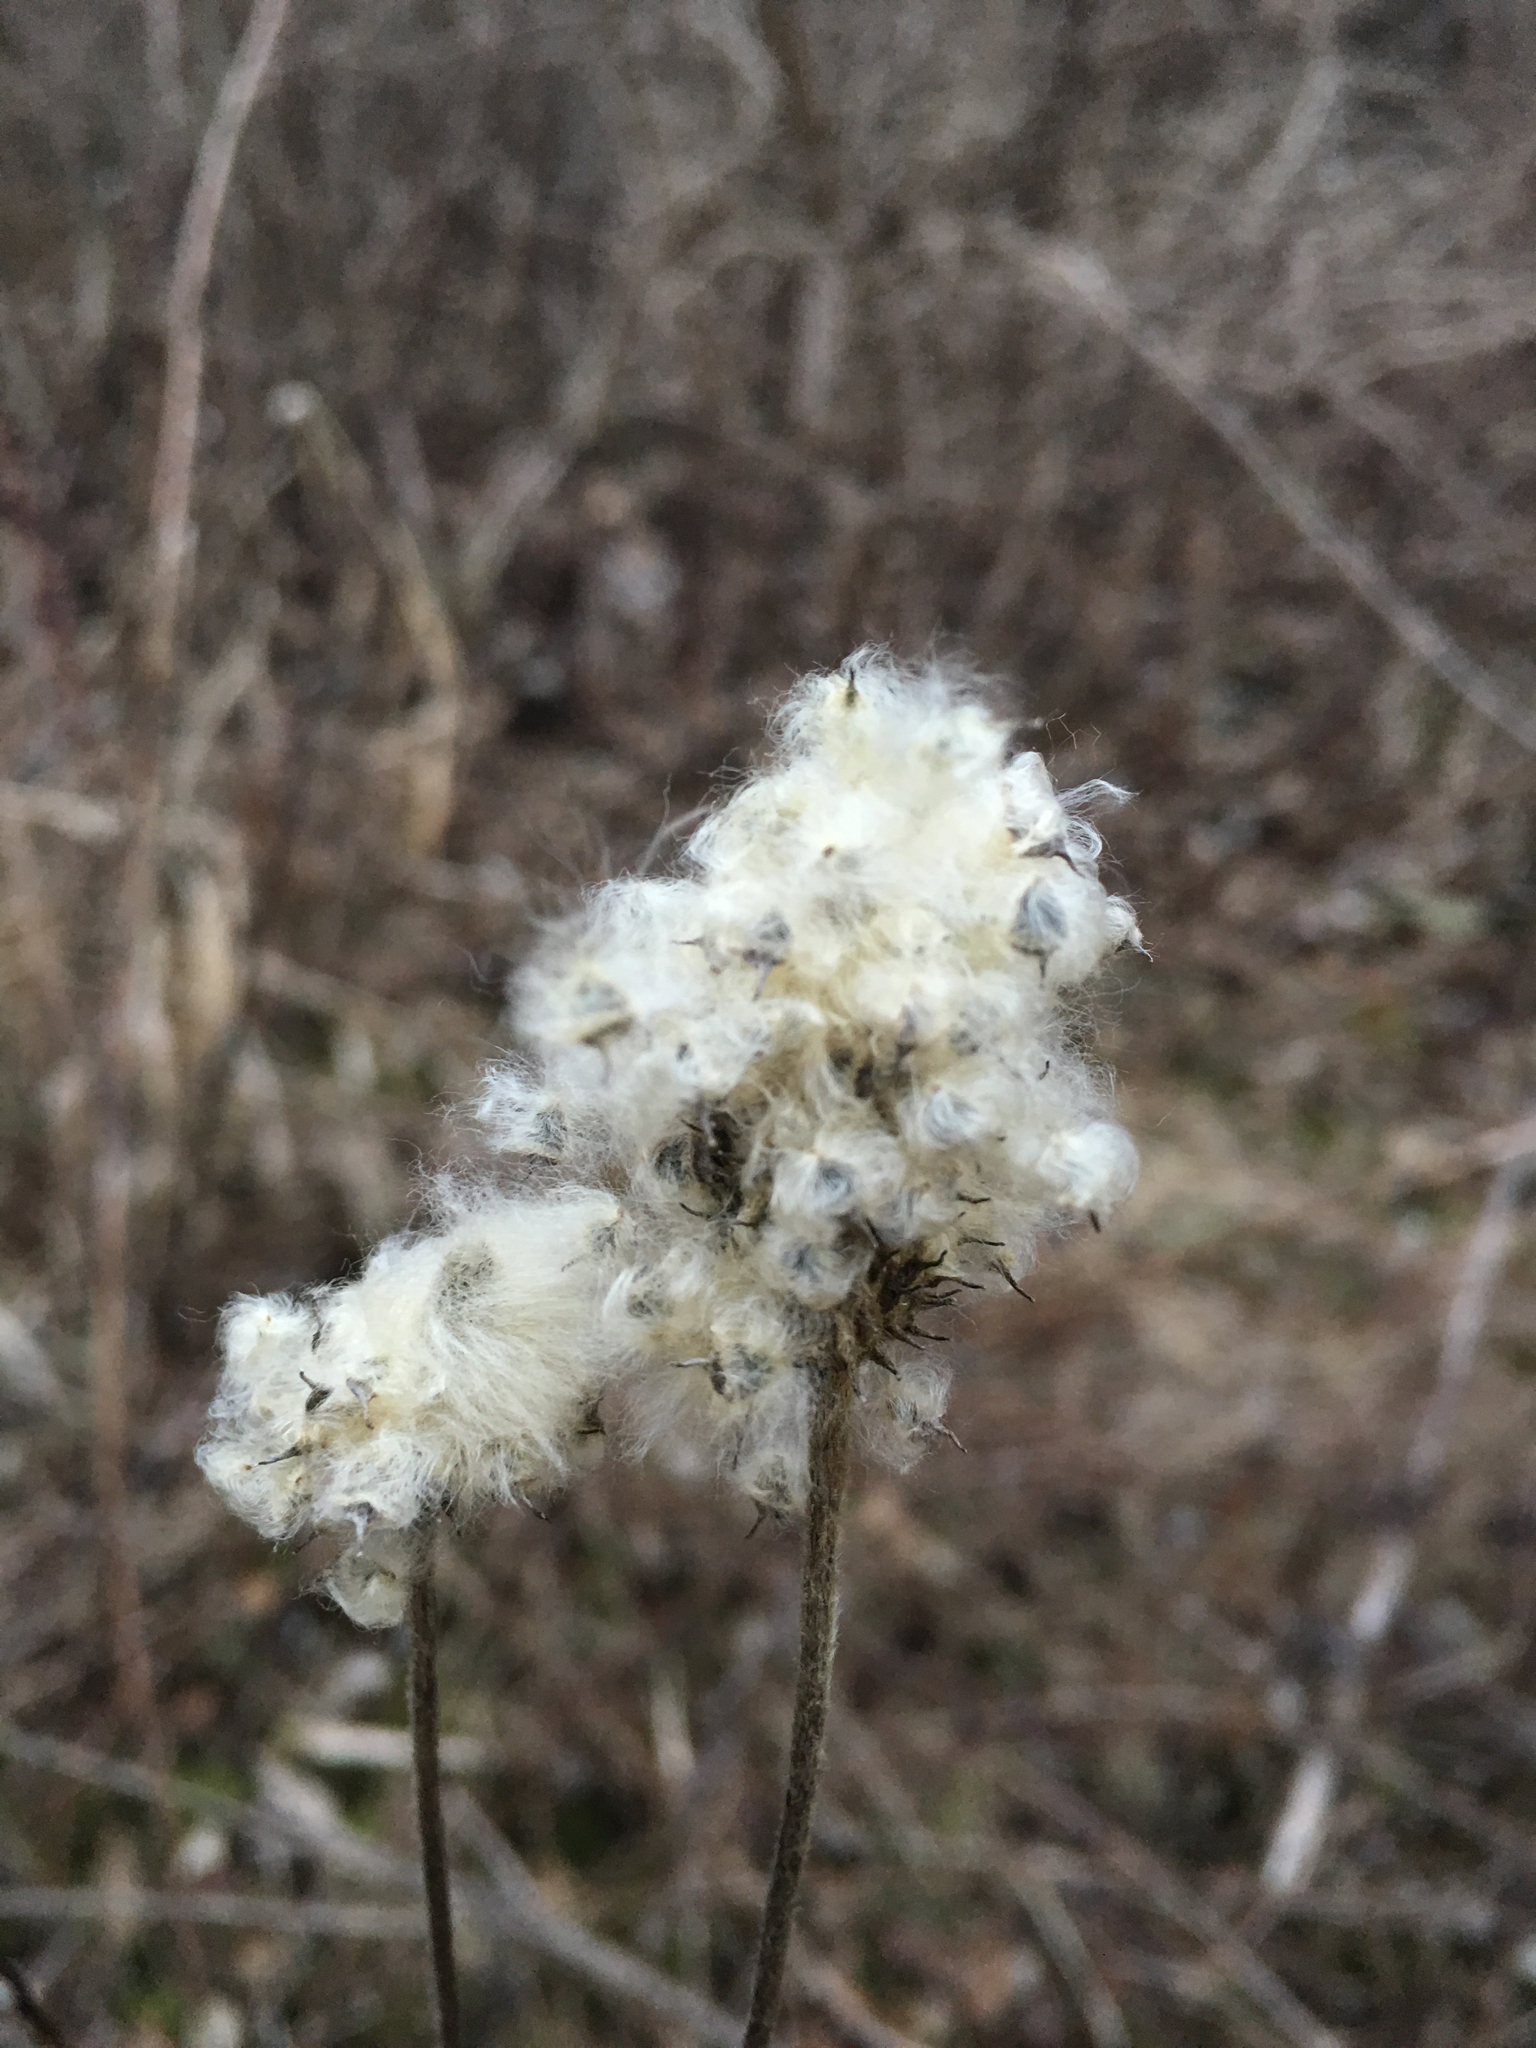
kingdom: Plantae
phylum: Tracheophyta
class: Magnoliopsida
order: Ranunculales
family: Ranunculaceae
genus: Anemone
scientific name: Anemone cylindrica
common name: Candle anemone
